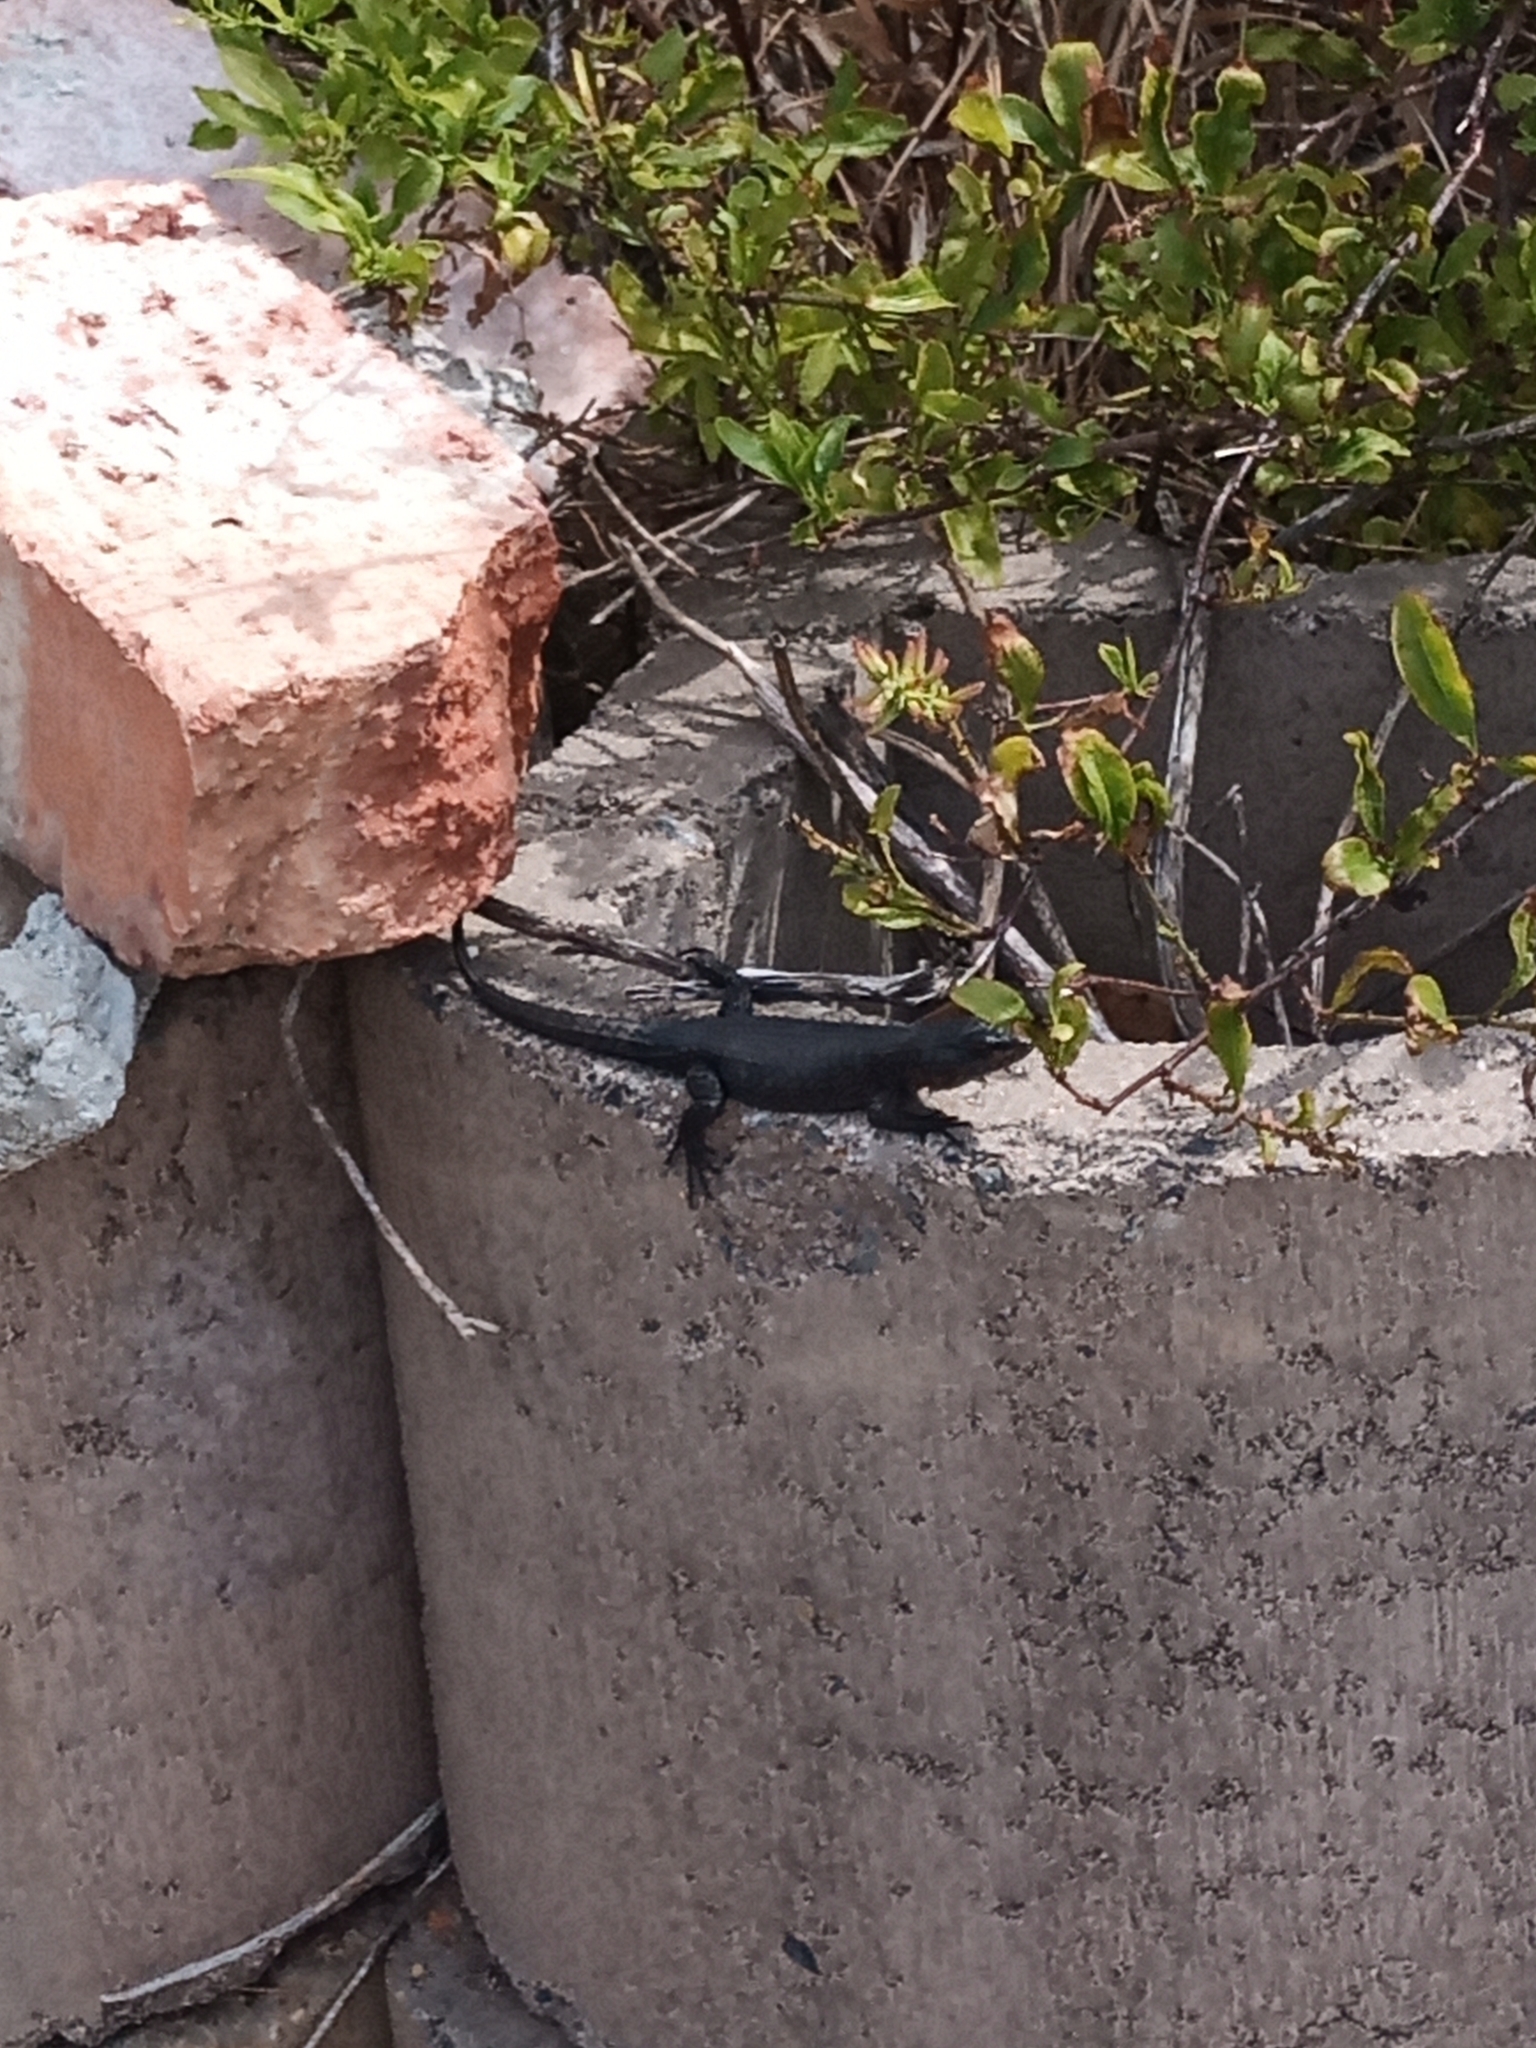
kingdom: Animalia
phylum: Chordata
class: Squamata
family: Cordylidae
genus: Cordylus
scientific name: Cordylus niger
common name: Black girdled lizard
